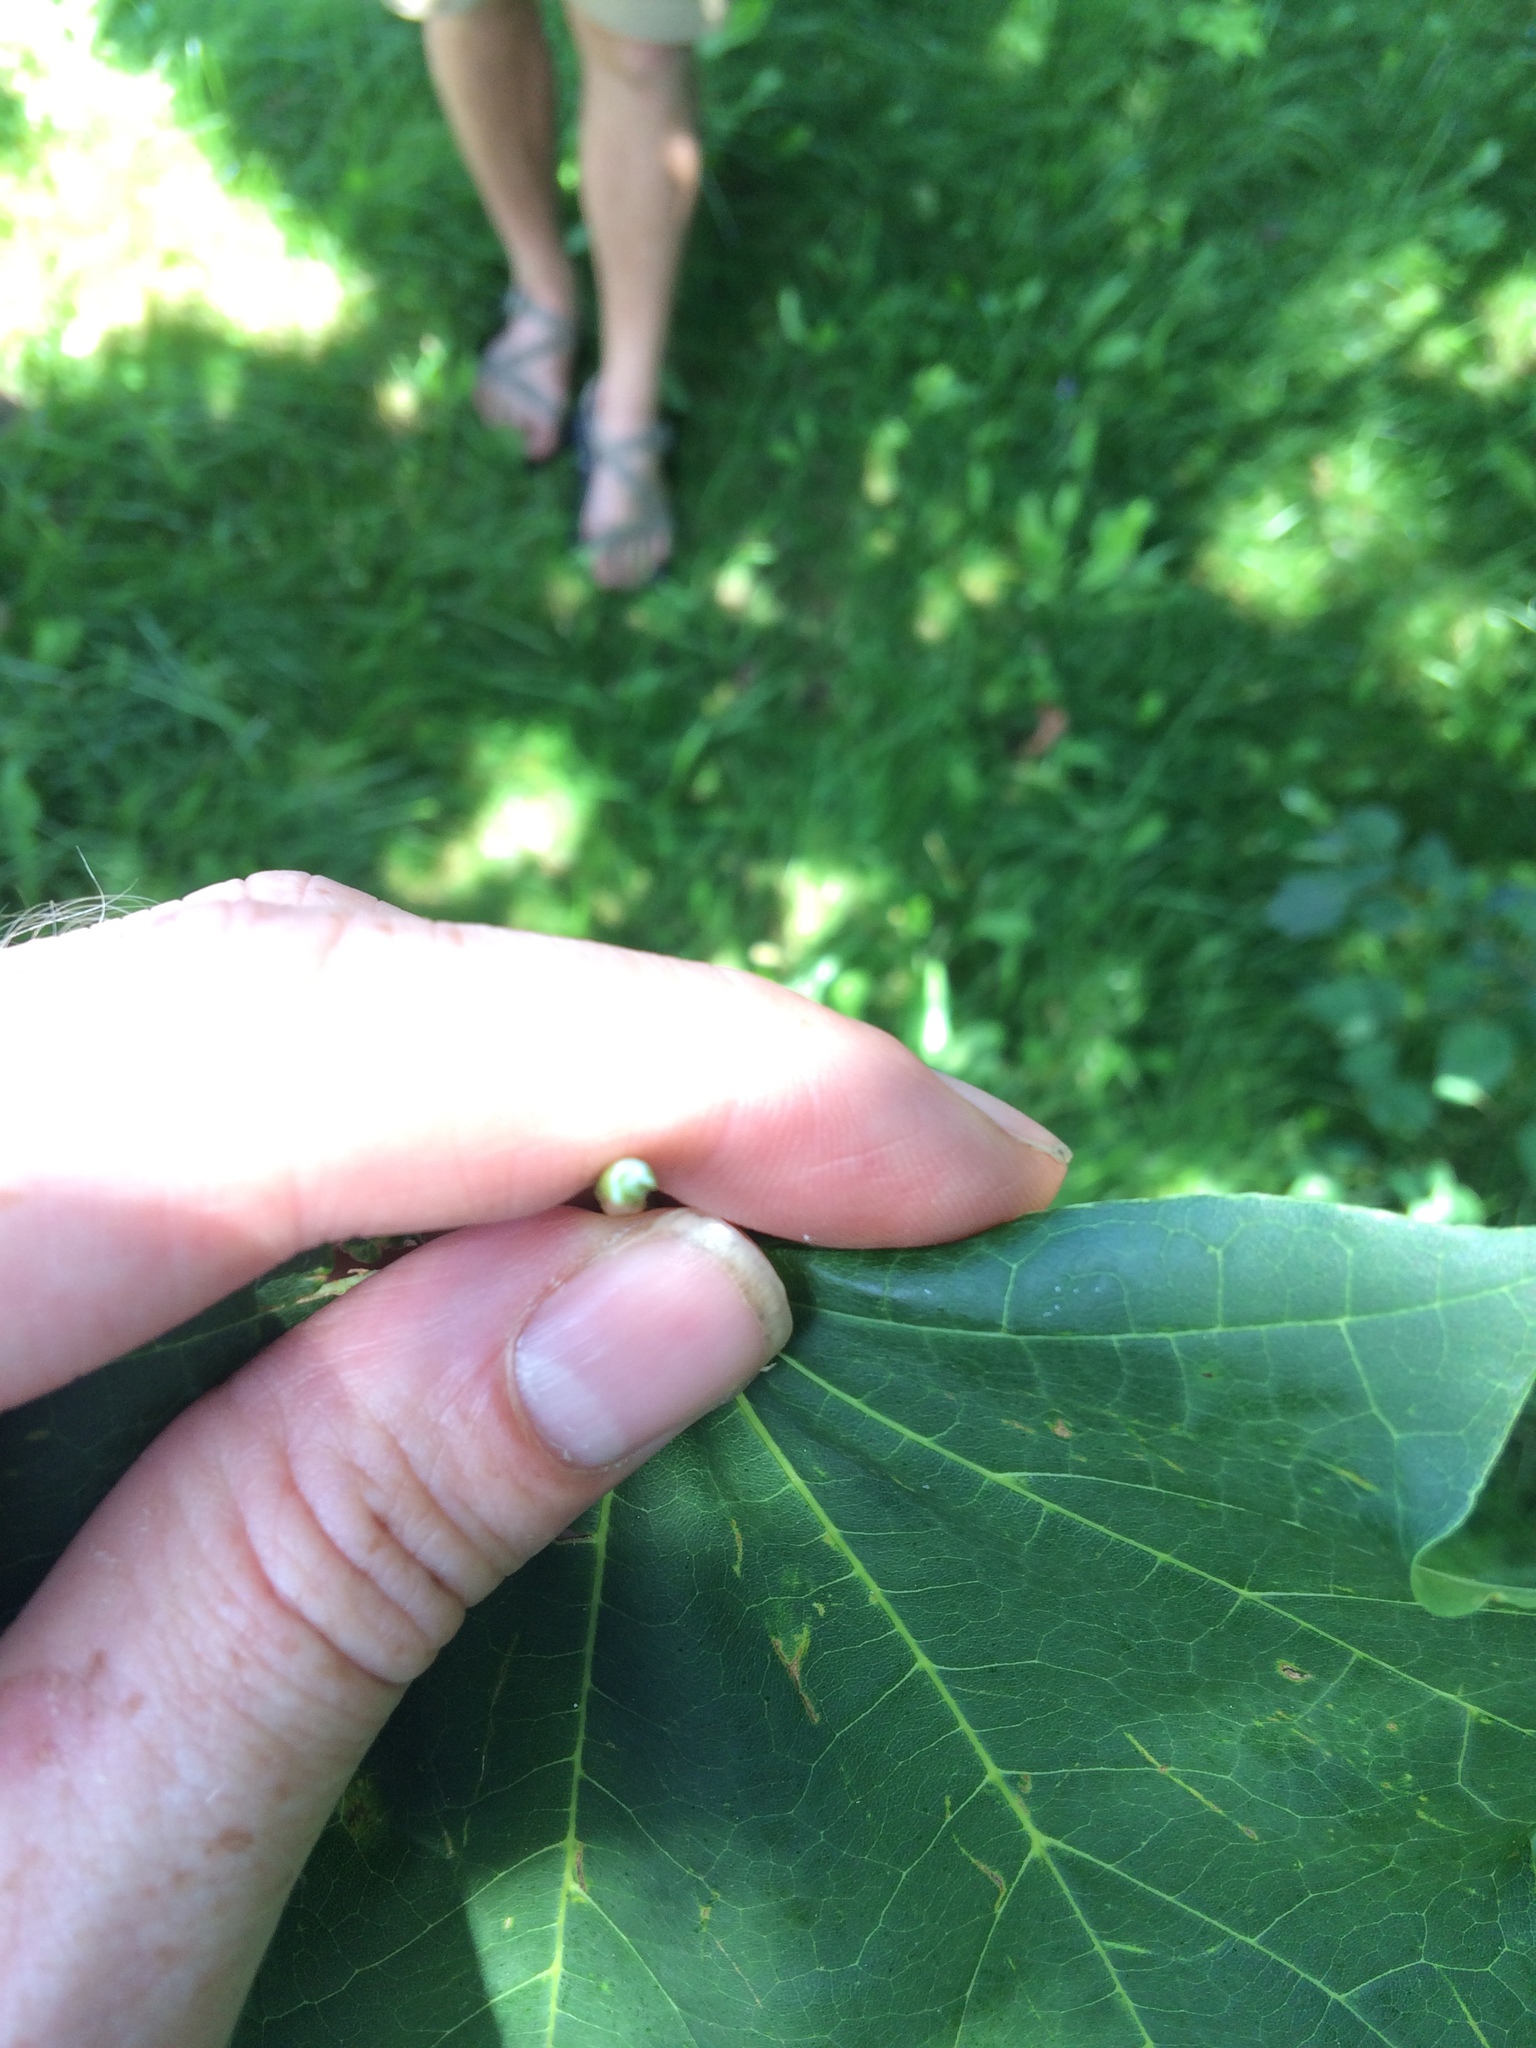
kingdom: Plantae
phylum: Tracheophyta
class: Magnoliopsida
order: Sapindales
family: Sapindaceae
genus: Acer
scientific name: Acer platanoides
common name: Norway maple
